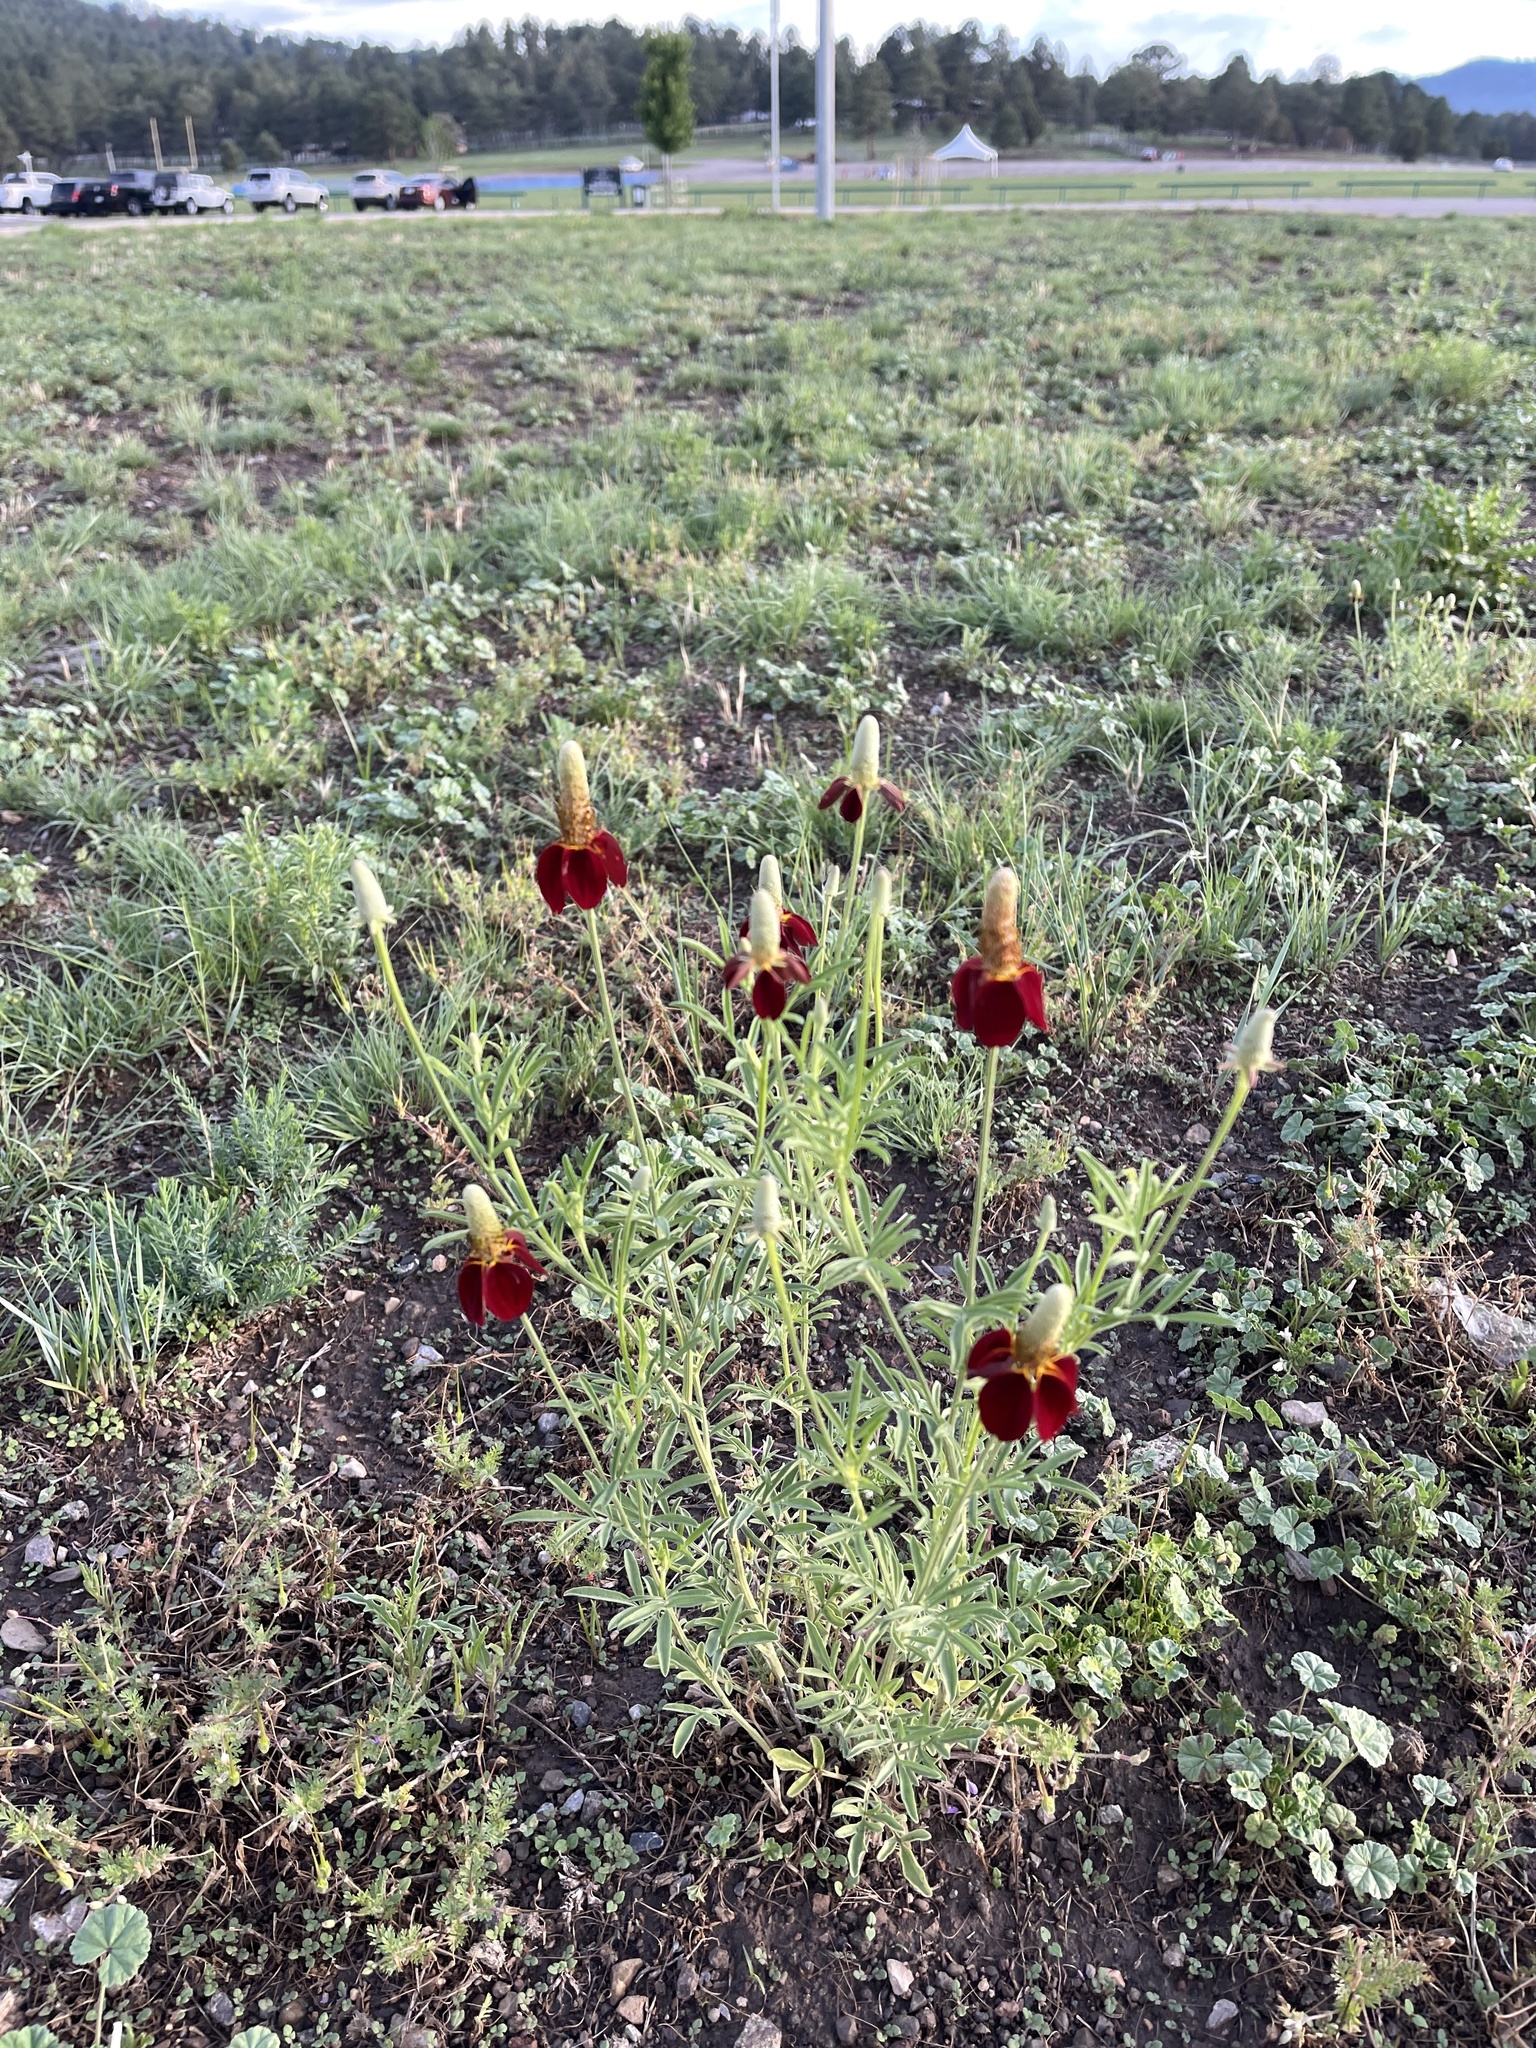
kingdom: Plantae
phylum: Tracheophyta
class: Magnoliopsida
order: Asterales
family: Asteraceae
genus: Ratibida
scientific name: Ratibida columnifera
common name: Prairie coneflower
